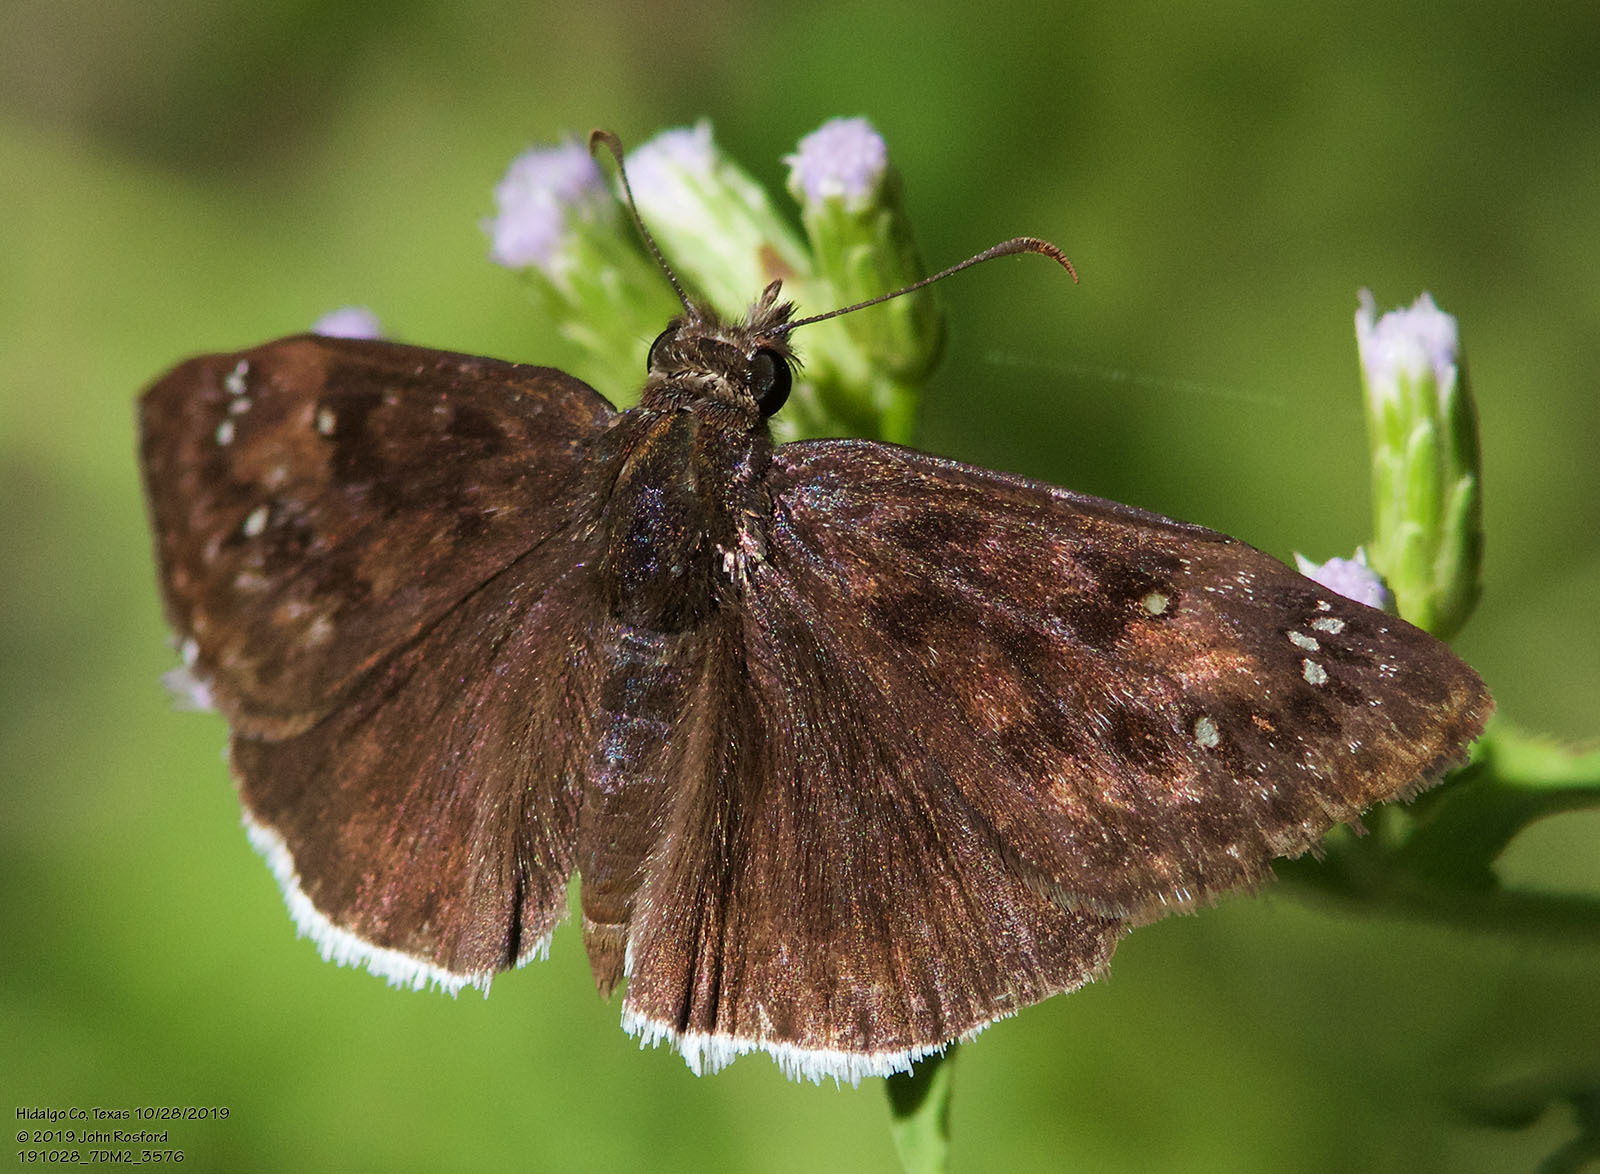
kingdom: Animalia
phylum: Arthropoda
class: Insecta
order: Lepidoptera
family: Hesperiidae
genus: Erynnis
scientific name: Erynnis tristis
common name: Mournful duskywing
